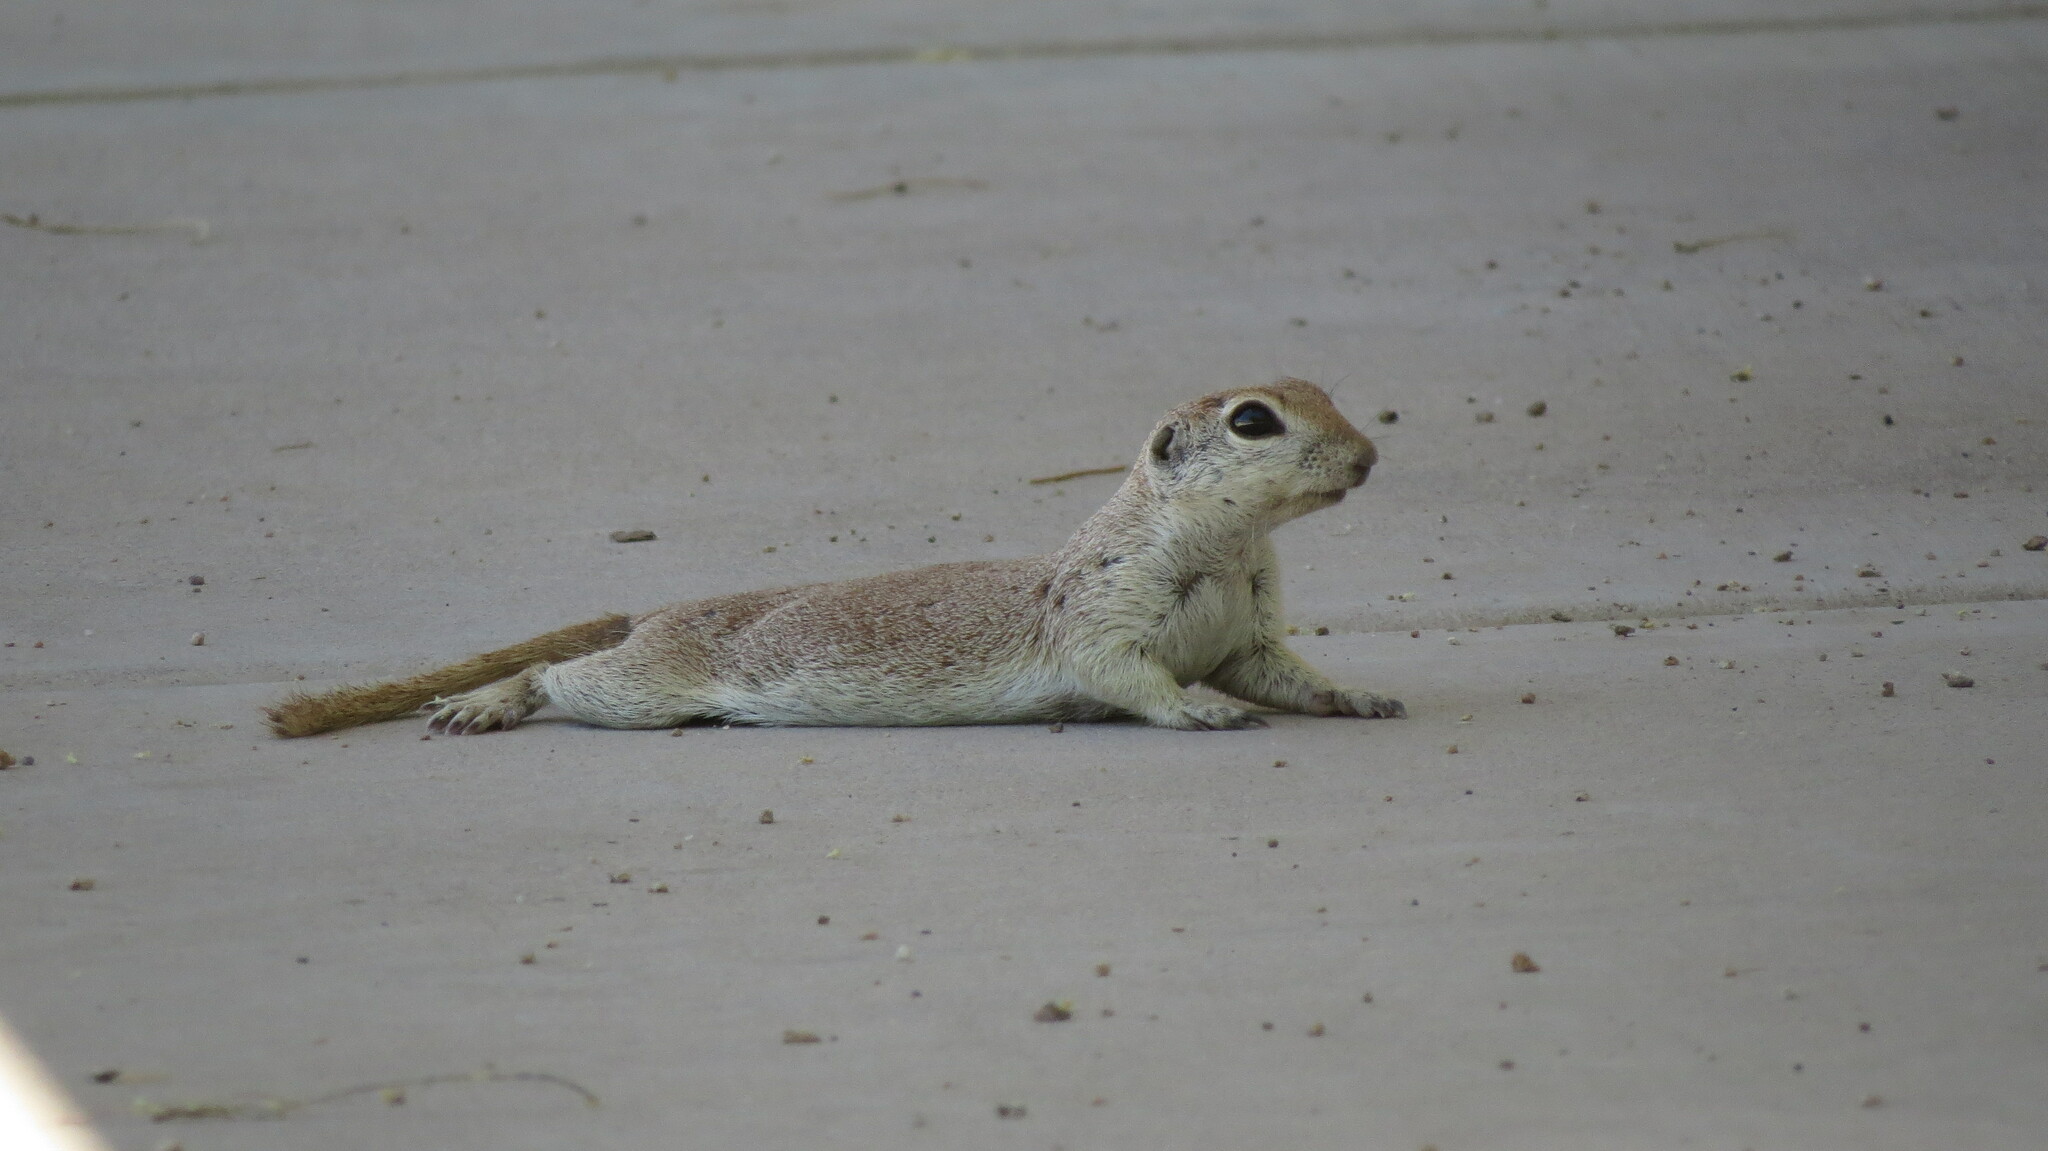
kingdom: Animalia
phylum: Chordata
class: Mammalia
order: Rodentia
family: Sciuridae
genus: Xerospermophilus
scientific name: Xerospermophilus tereticaudus
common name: Round-tailed ground squirrel
